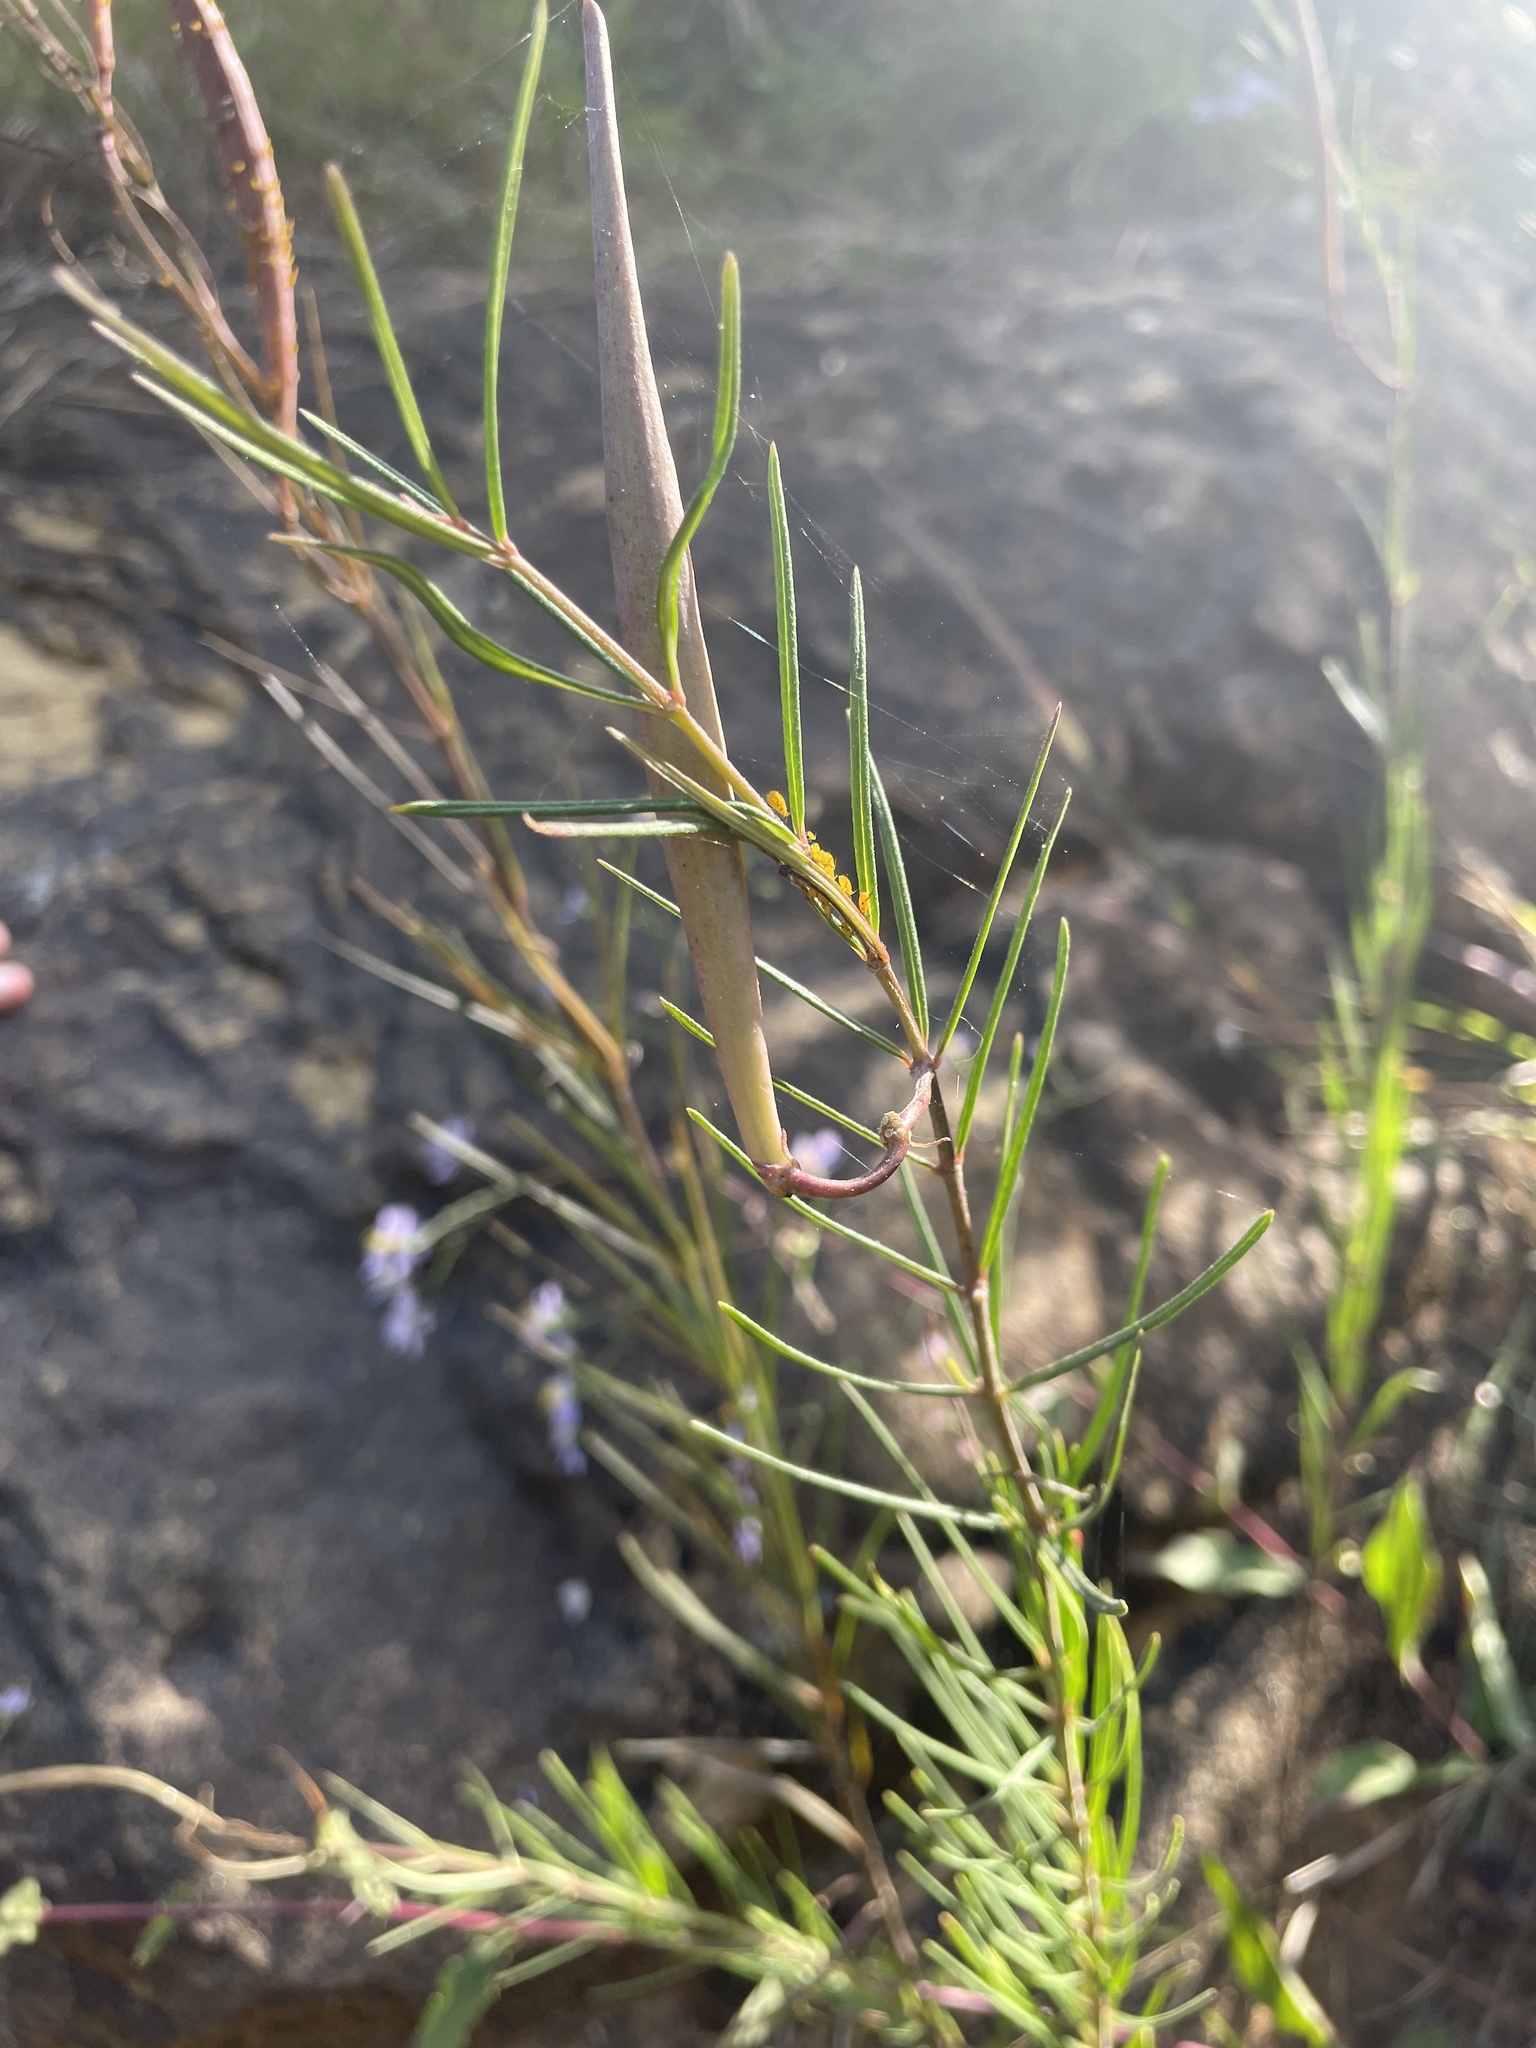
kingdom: Plantae
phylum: Tracheophyta
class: Magnoliopsida
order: Gentianales
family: Apocynaceae
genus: Asclepias
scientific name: Asclepias verticillata
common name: Eastern whorled milkweed
